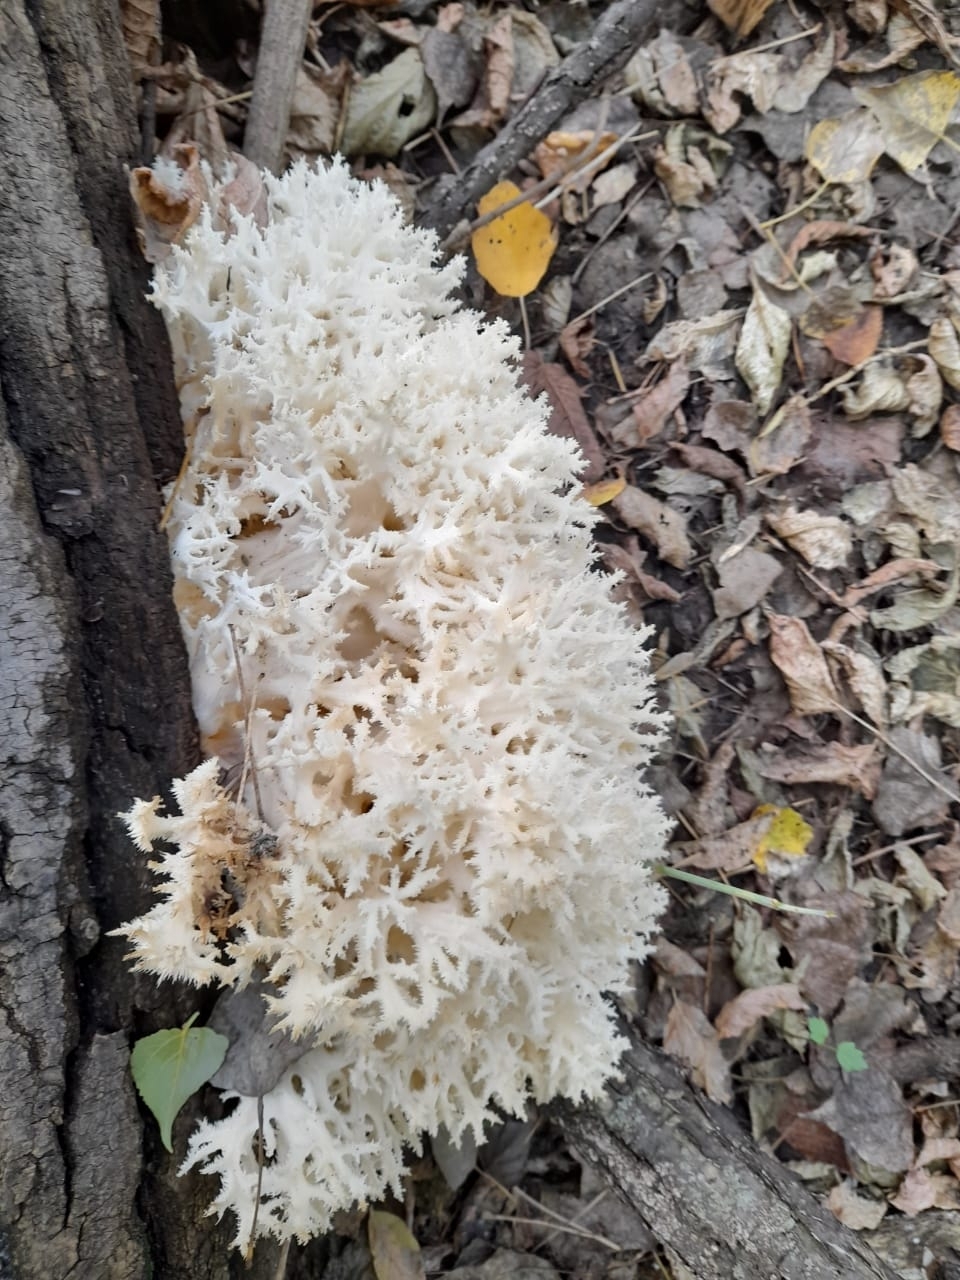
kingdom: Fungi
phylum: Basidiomycota
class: Agaricomycetes
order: Russulales
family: Hericiaceae
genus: Hericium
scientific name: Hericium coralloides
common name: Coral tooth
